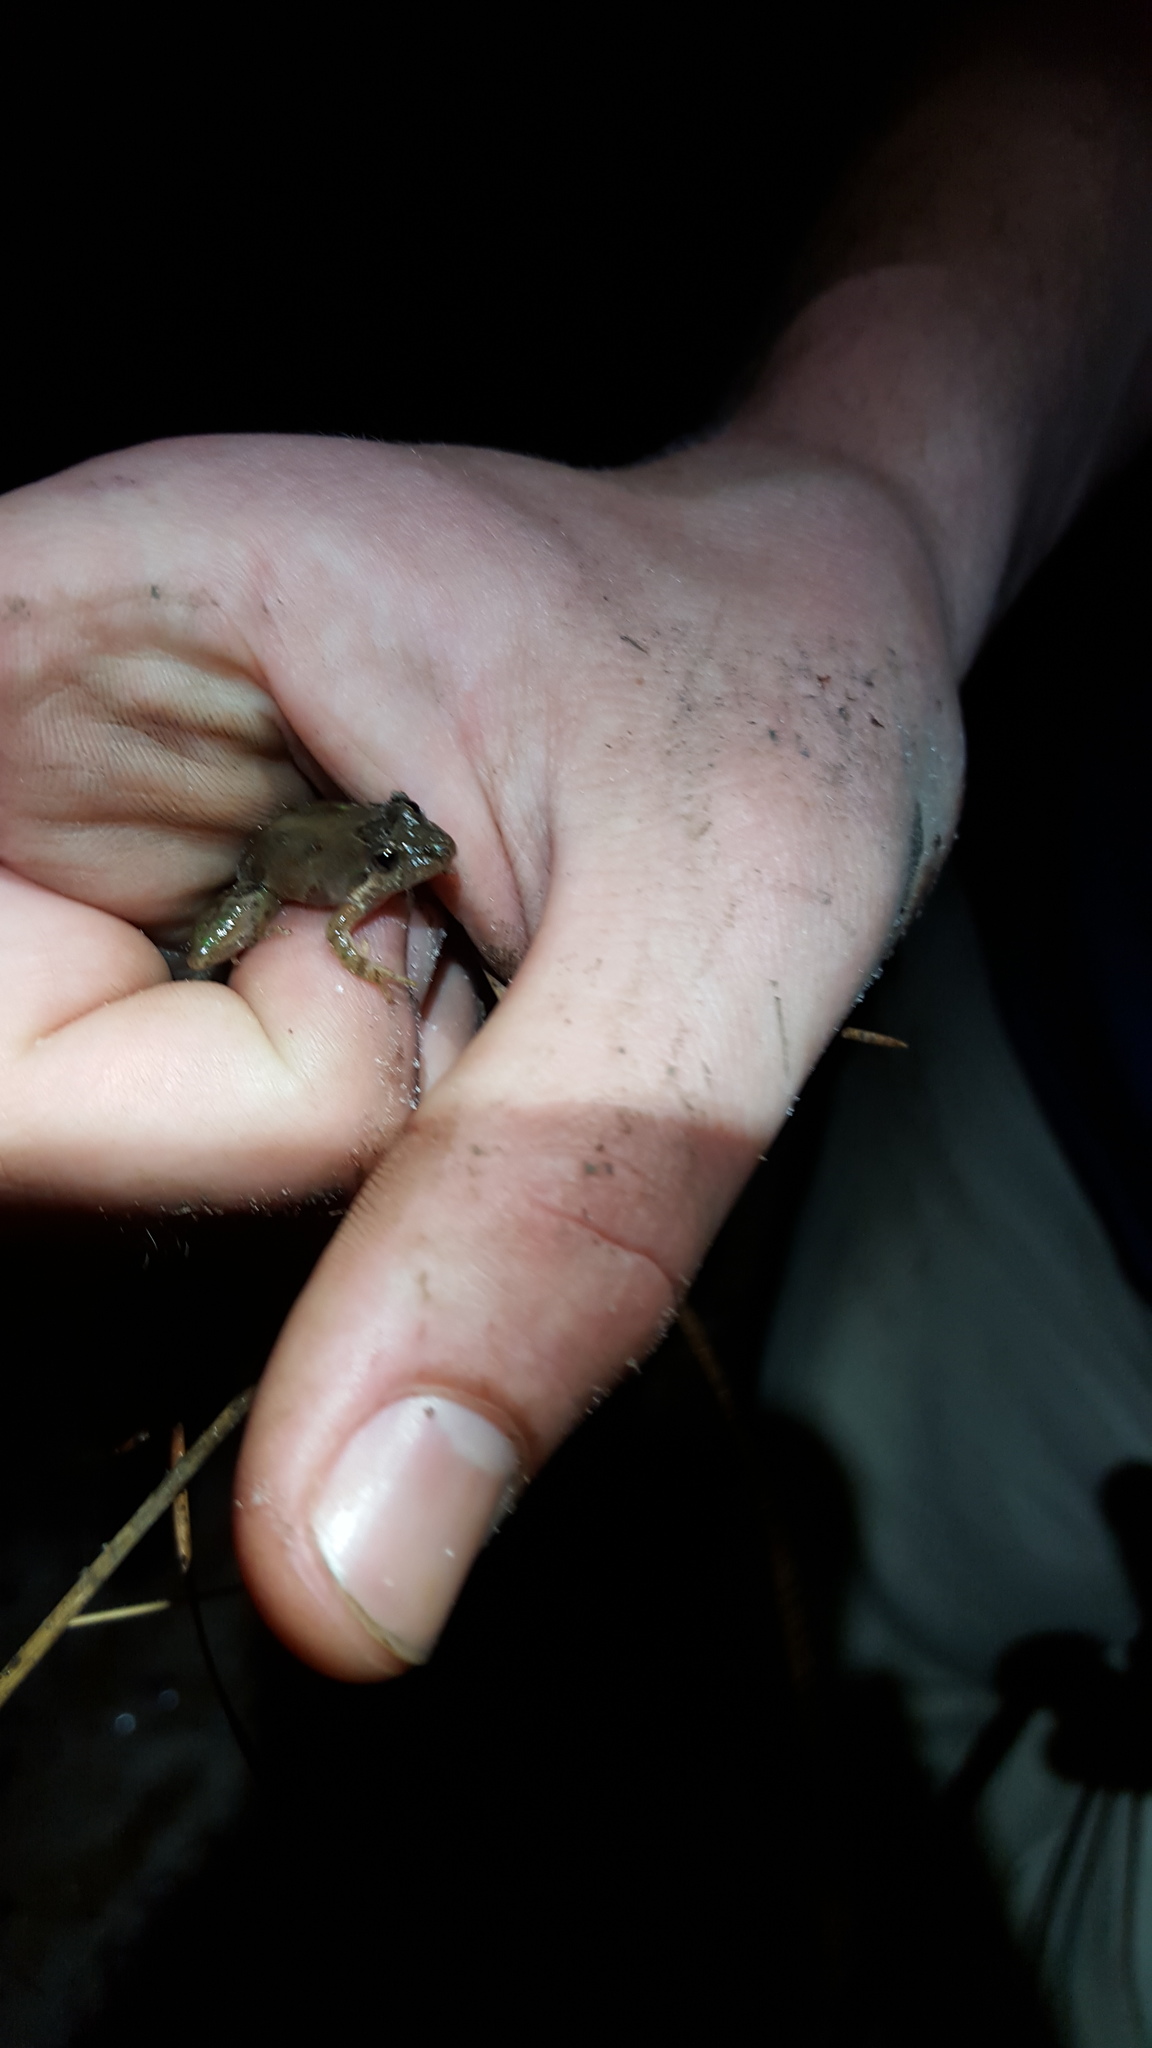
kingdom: Animalia
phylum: Chordata
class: Amphibia
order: Anura
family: Hylidae
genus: Acris
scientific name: Acris gryllus
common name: Southern cricket frog
